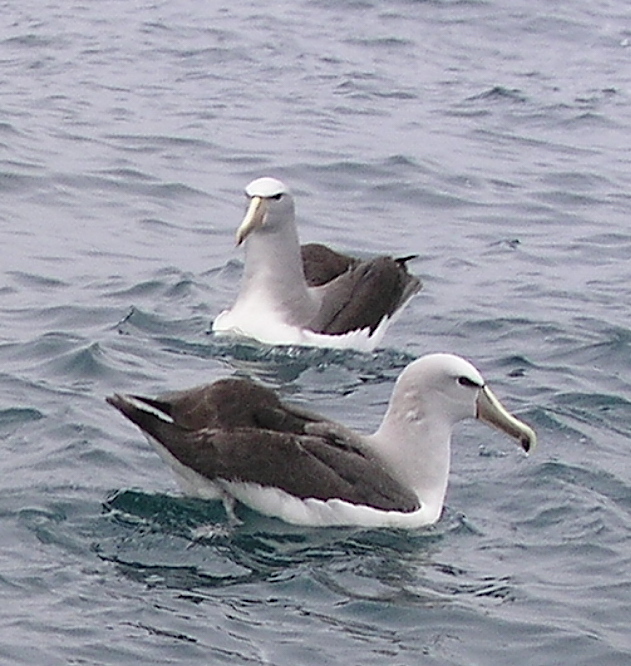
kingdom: Animalia
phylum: Chordata
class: Aves
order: Procellariiformes
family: Diomedeidae
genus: Thalassarche
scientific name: Thalassarche salvini
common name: Salvin's albatross
